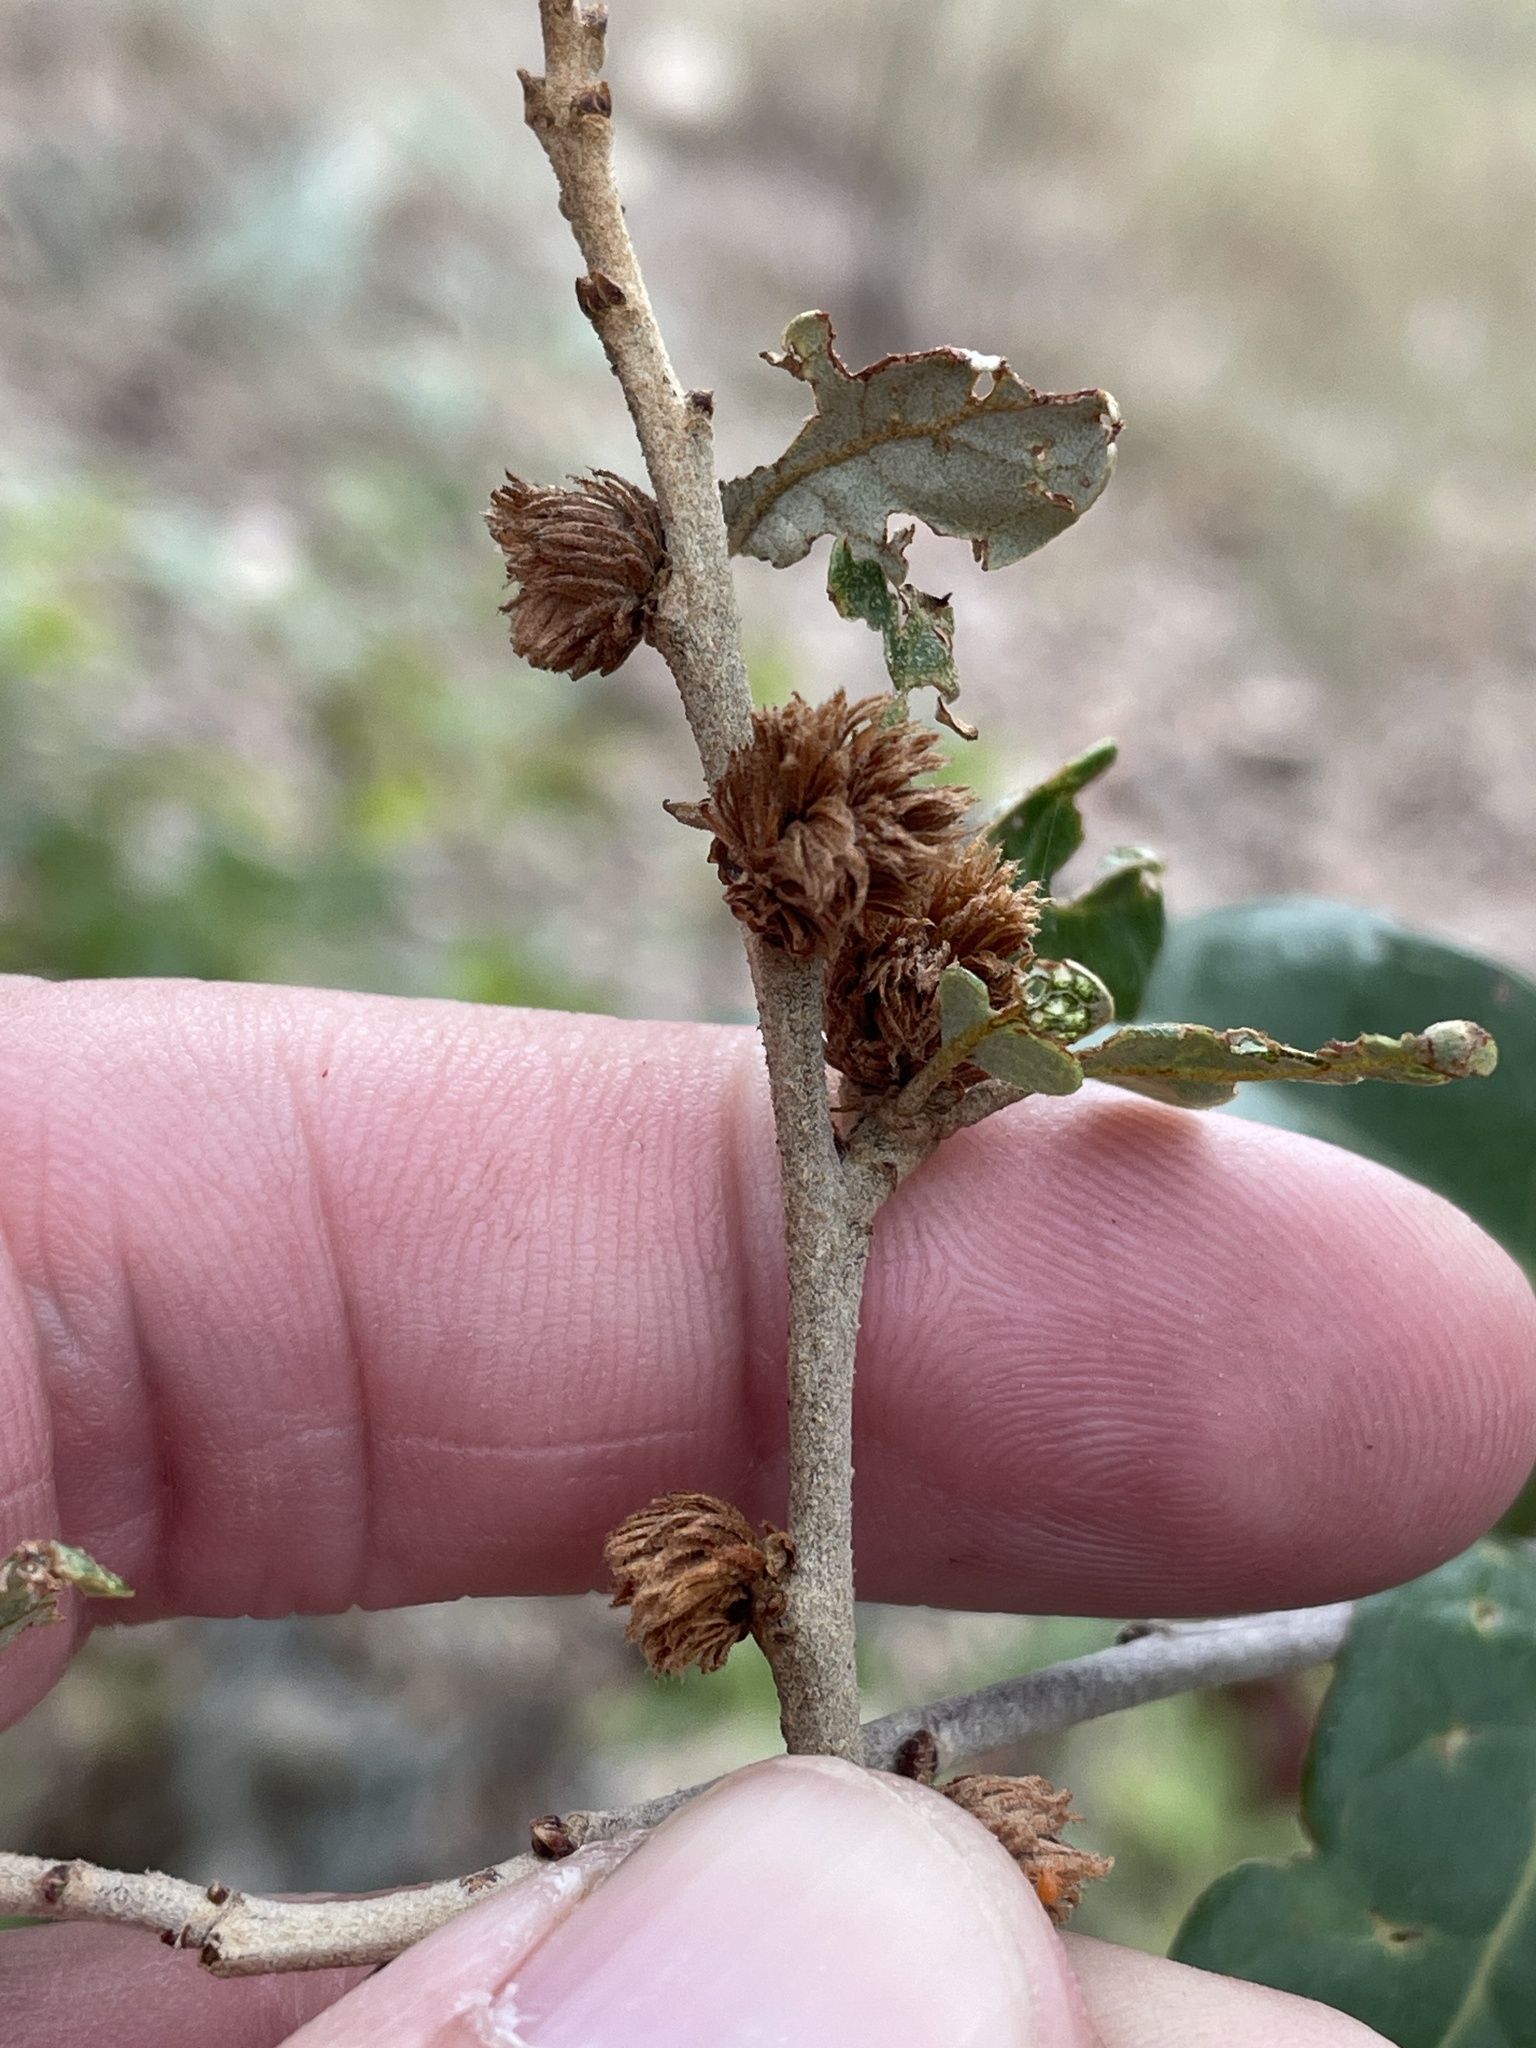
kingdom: Animalia
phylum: Arthropoda
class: Insecta
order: Hymenoptera
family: Cynipidae
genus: Andricus
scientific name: Andricus quercusfoliatus
